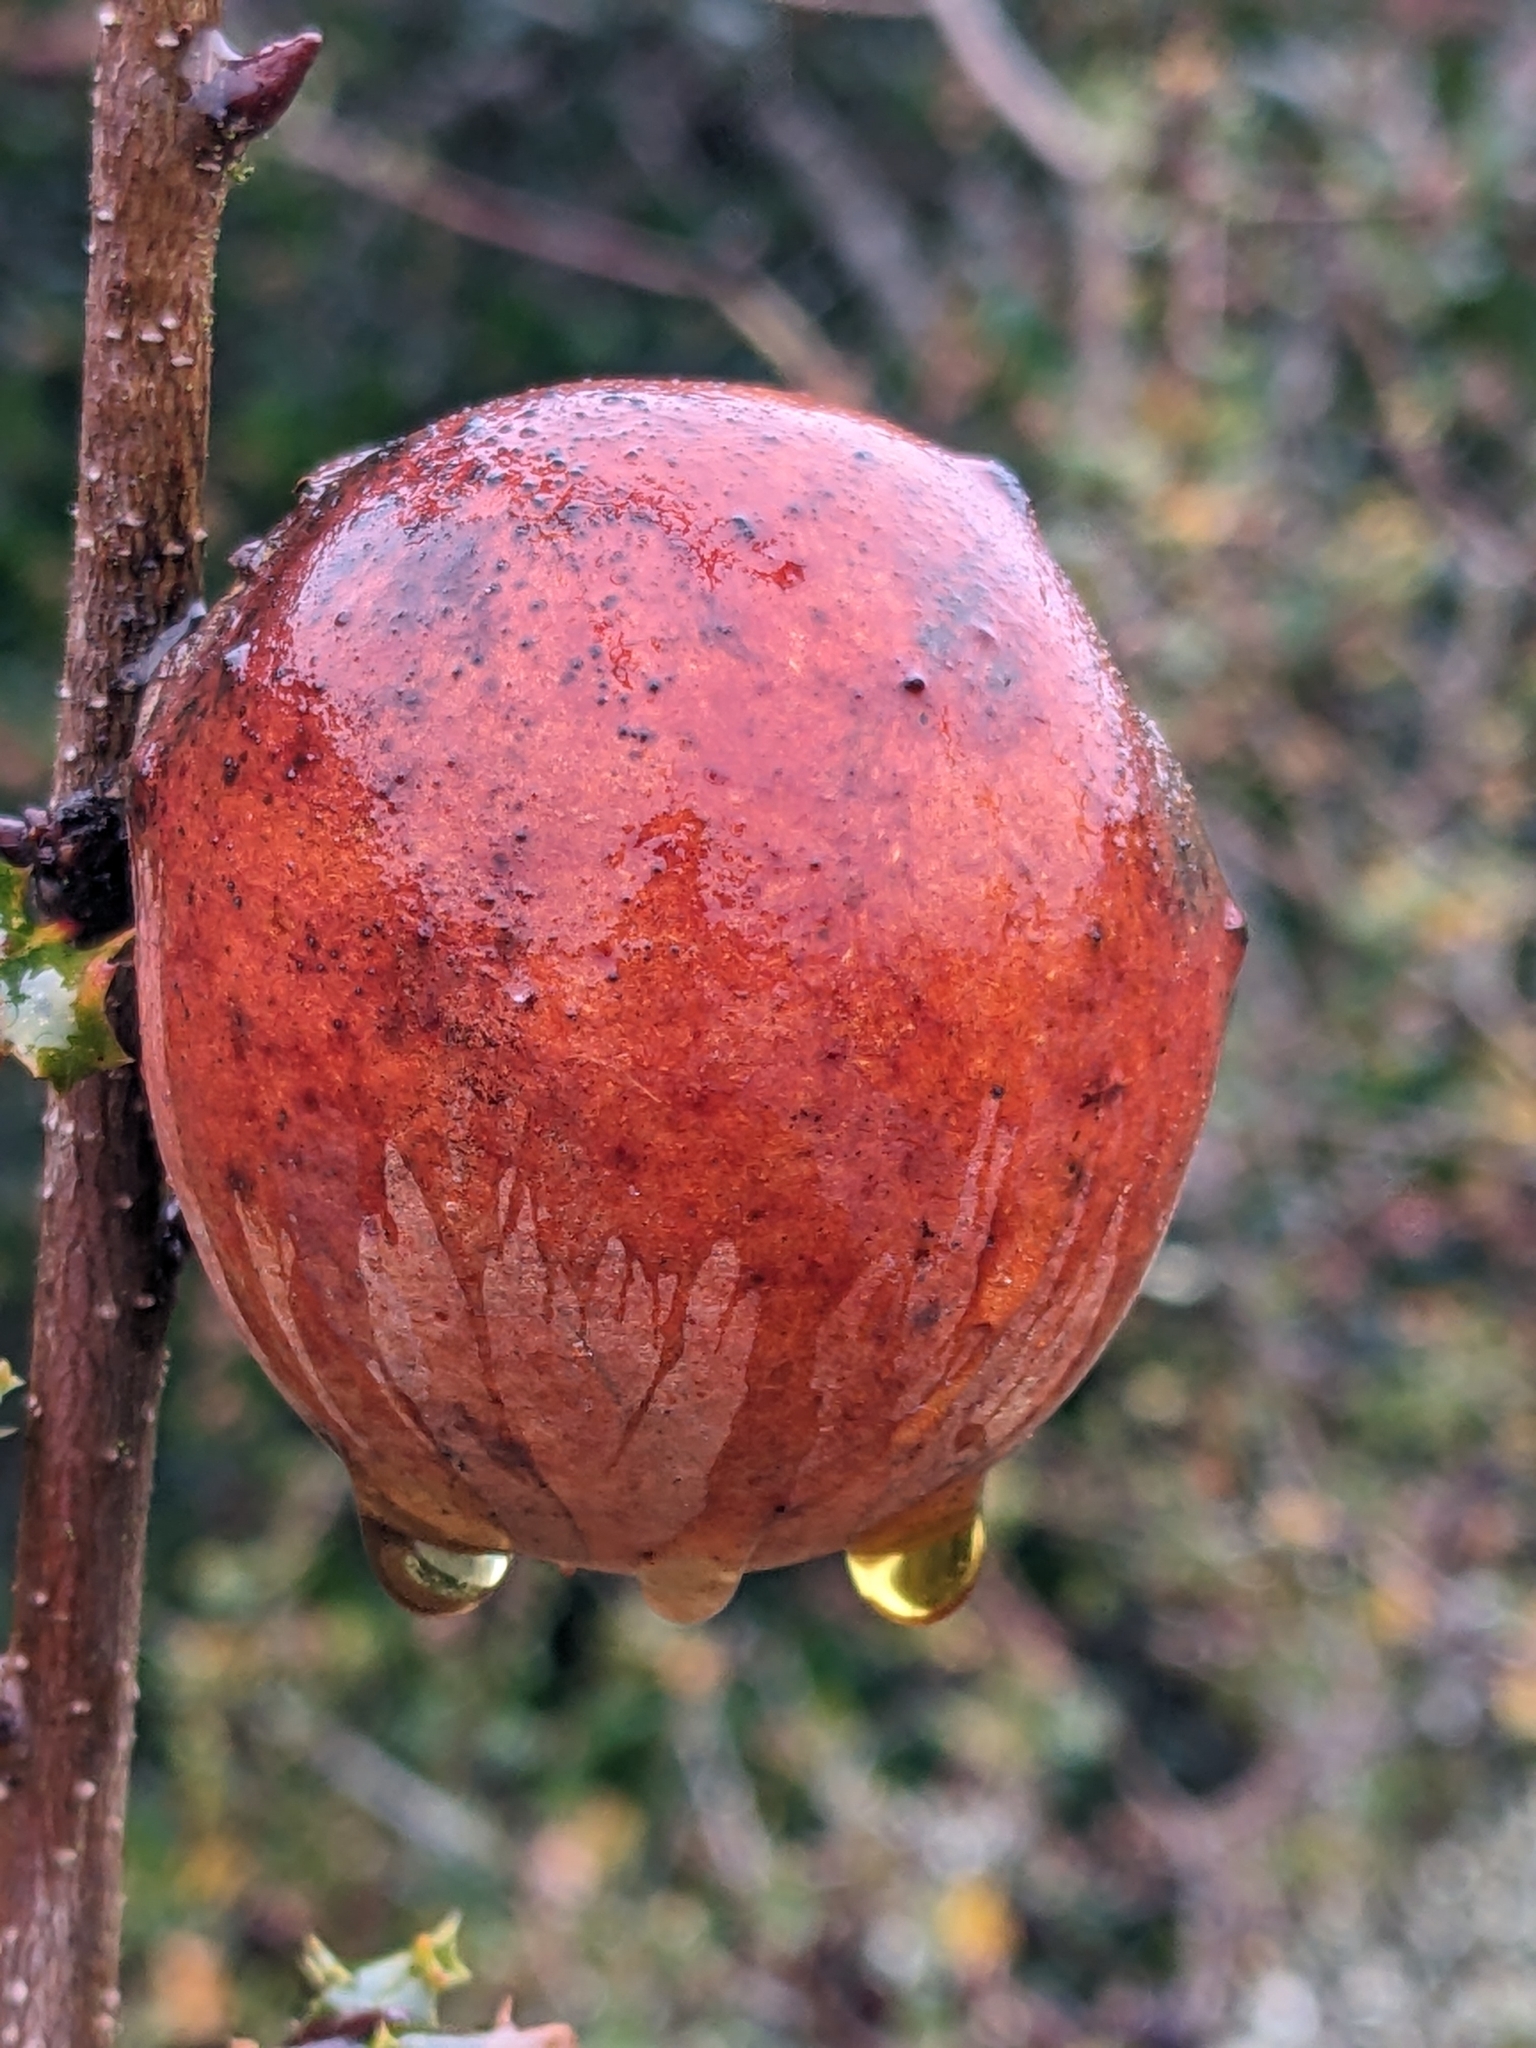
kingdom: Animalia
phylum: Arthropoda
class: Insecta
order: Hymenoptera
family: Cynipidae
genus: Andricus
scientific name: Andricus quercuscalifornicus
